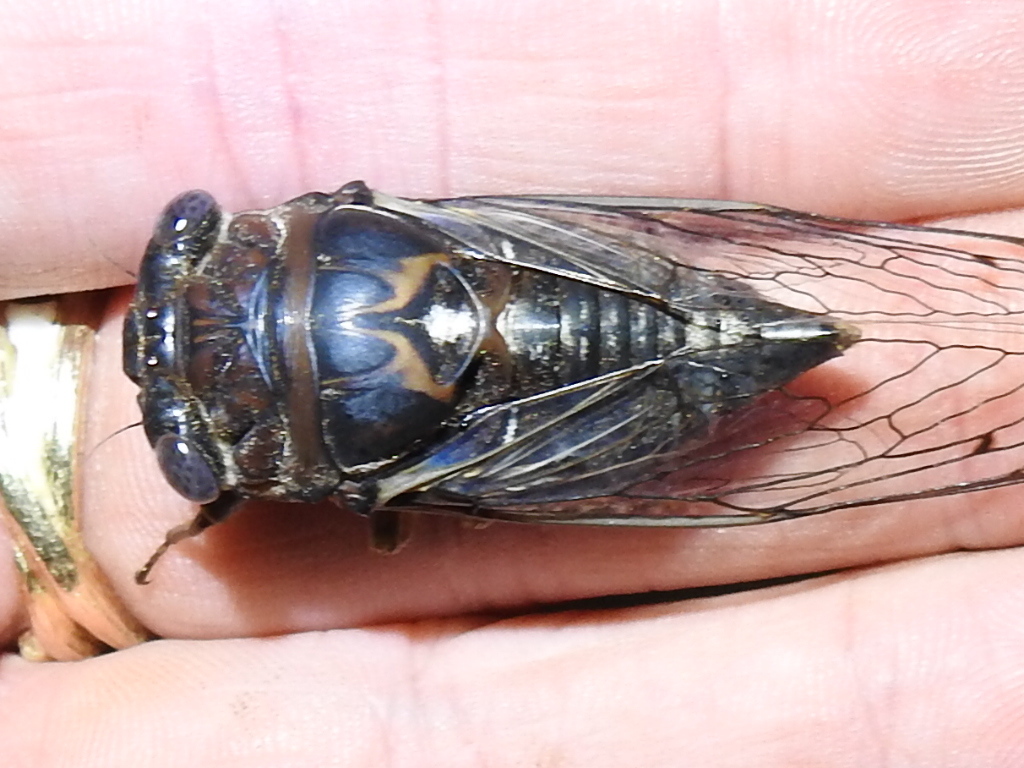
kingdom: Animalia
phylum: Arthropoda
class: Insecta
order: Hemiptera
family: Cicadidae
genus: Megatibicen
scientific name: Megatibicen figuratus
